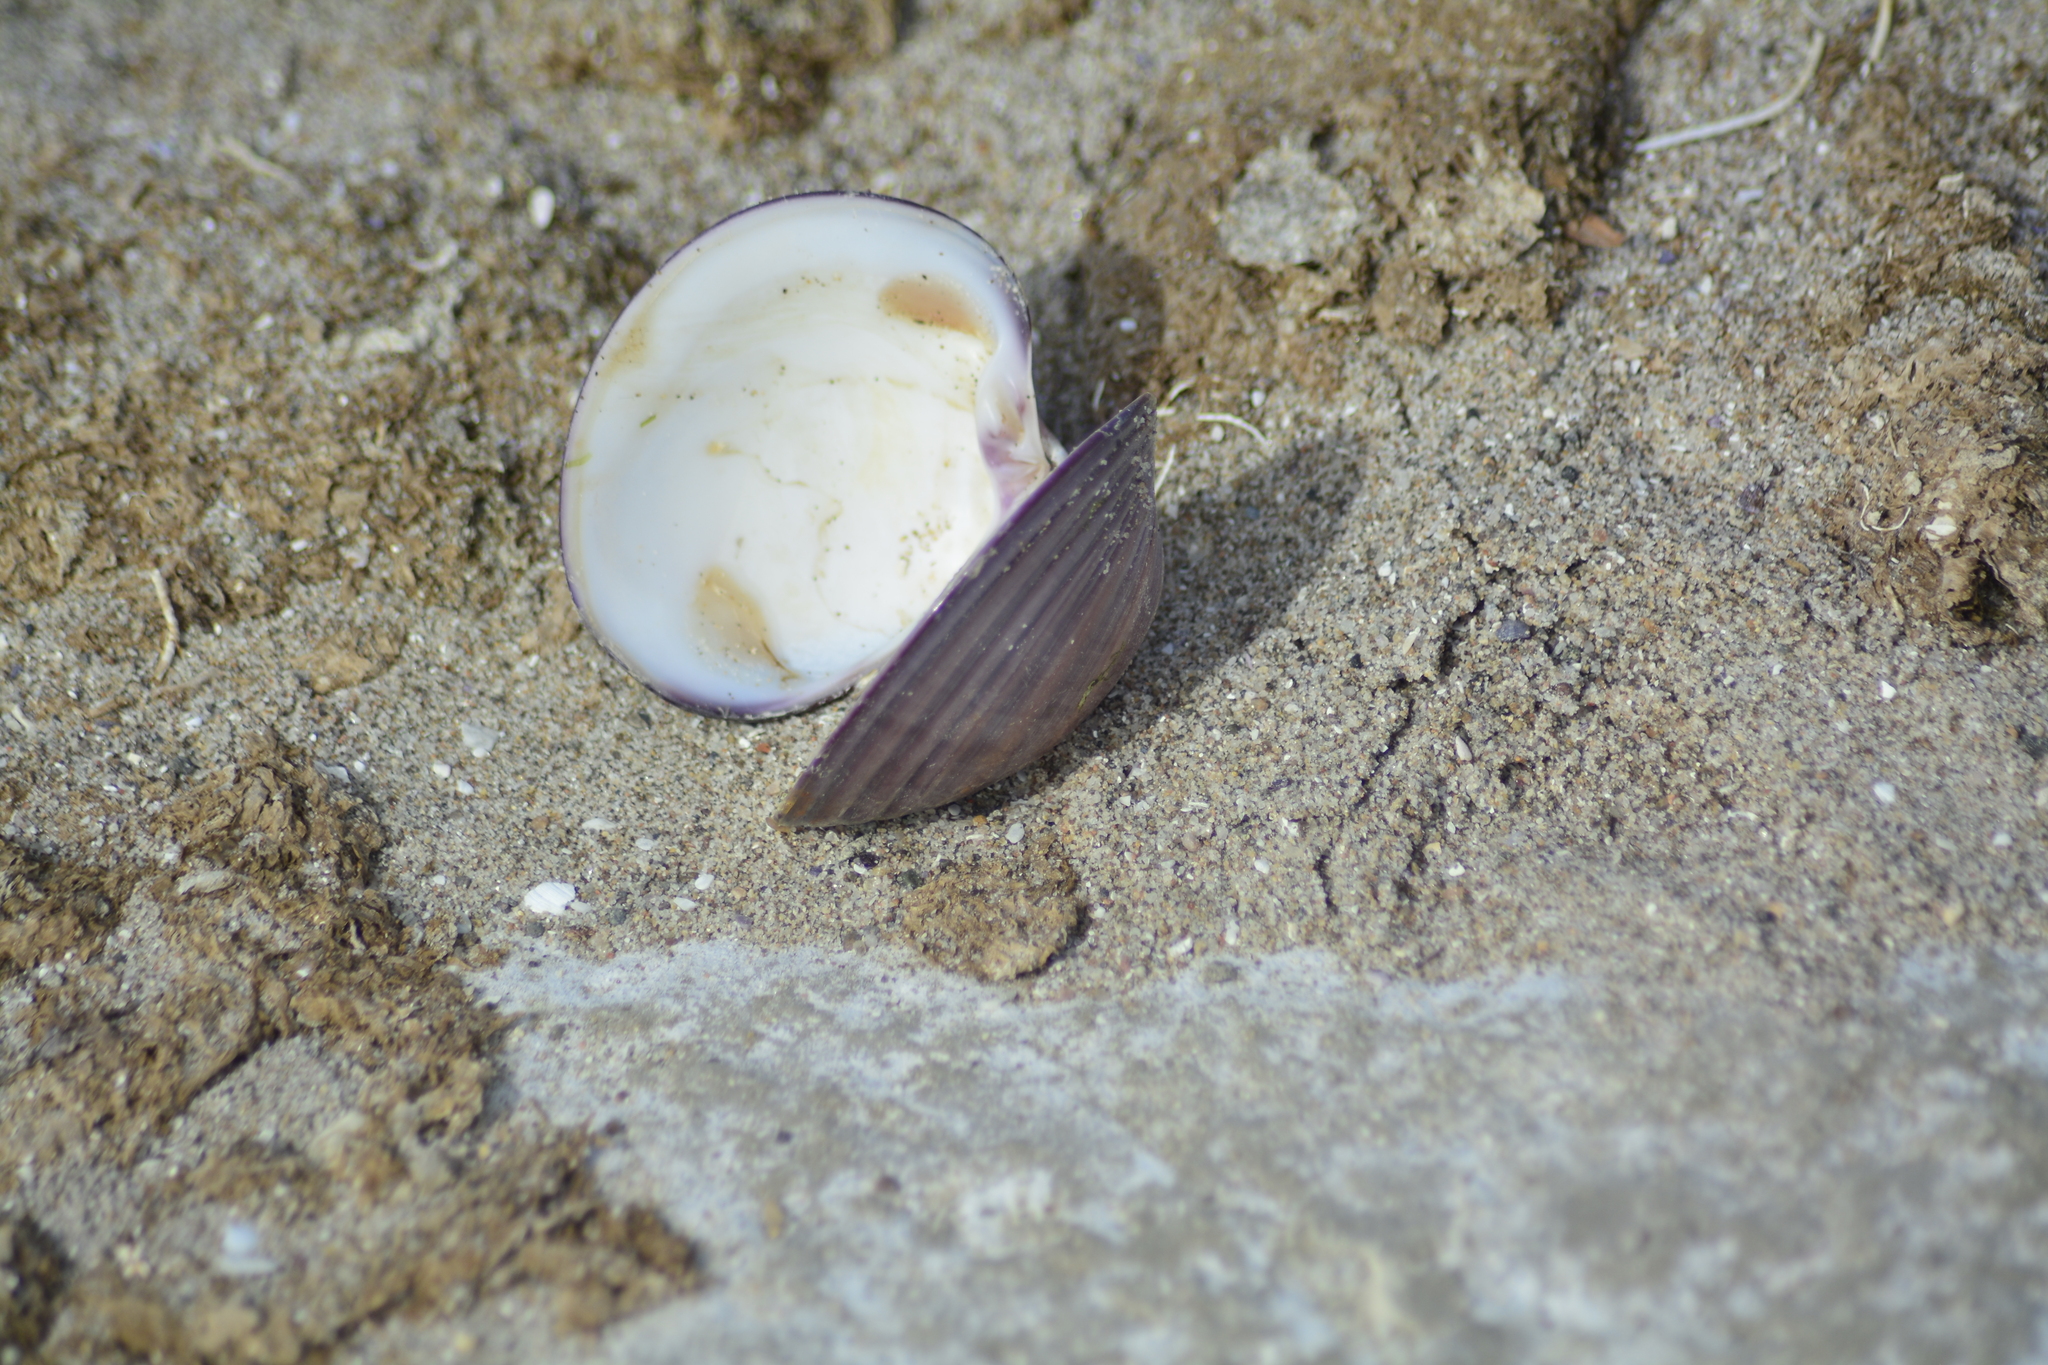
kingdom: Animalia
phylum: Mollusca
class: Bivalvia
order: Venerida
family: Veneridae
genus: Eucallista
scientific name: Eucallista purpurata
